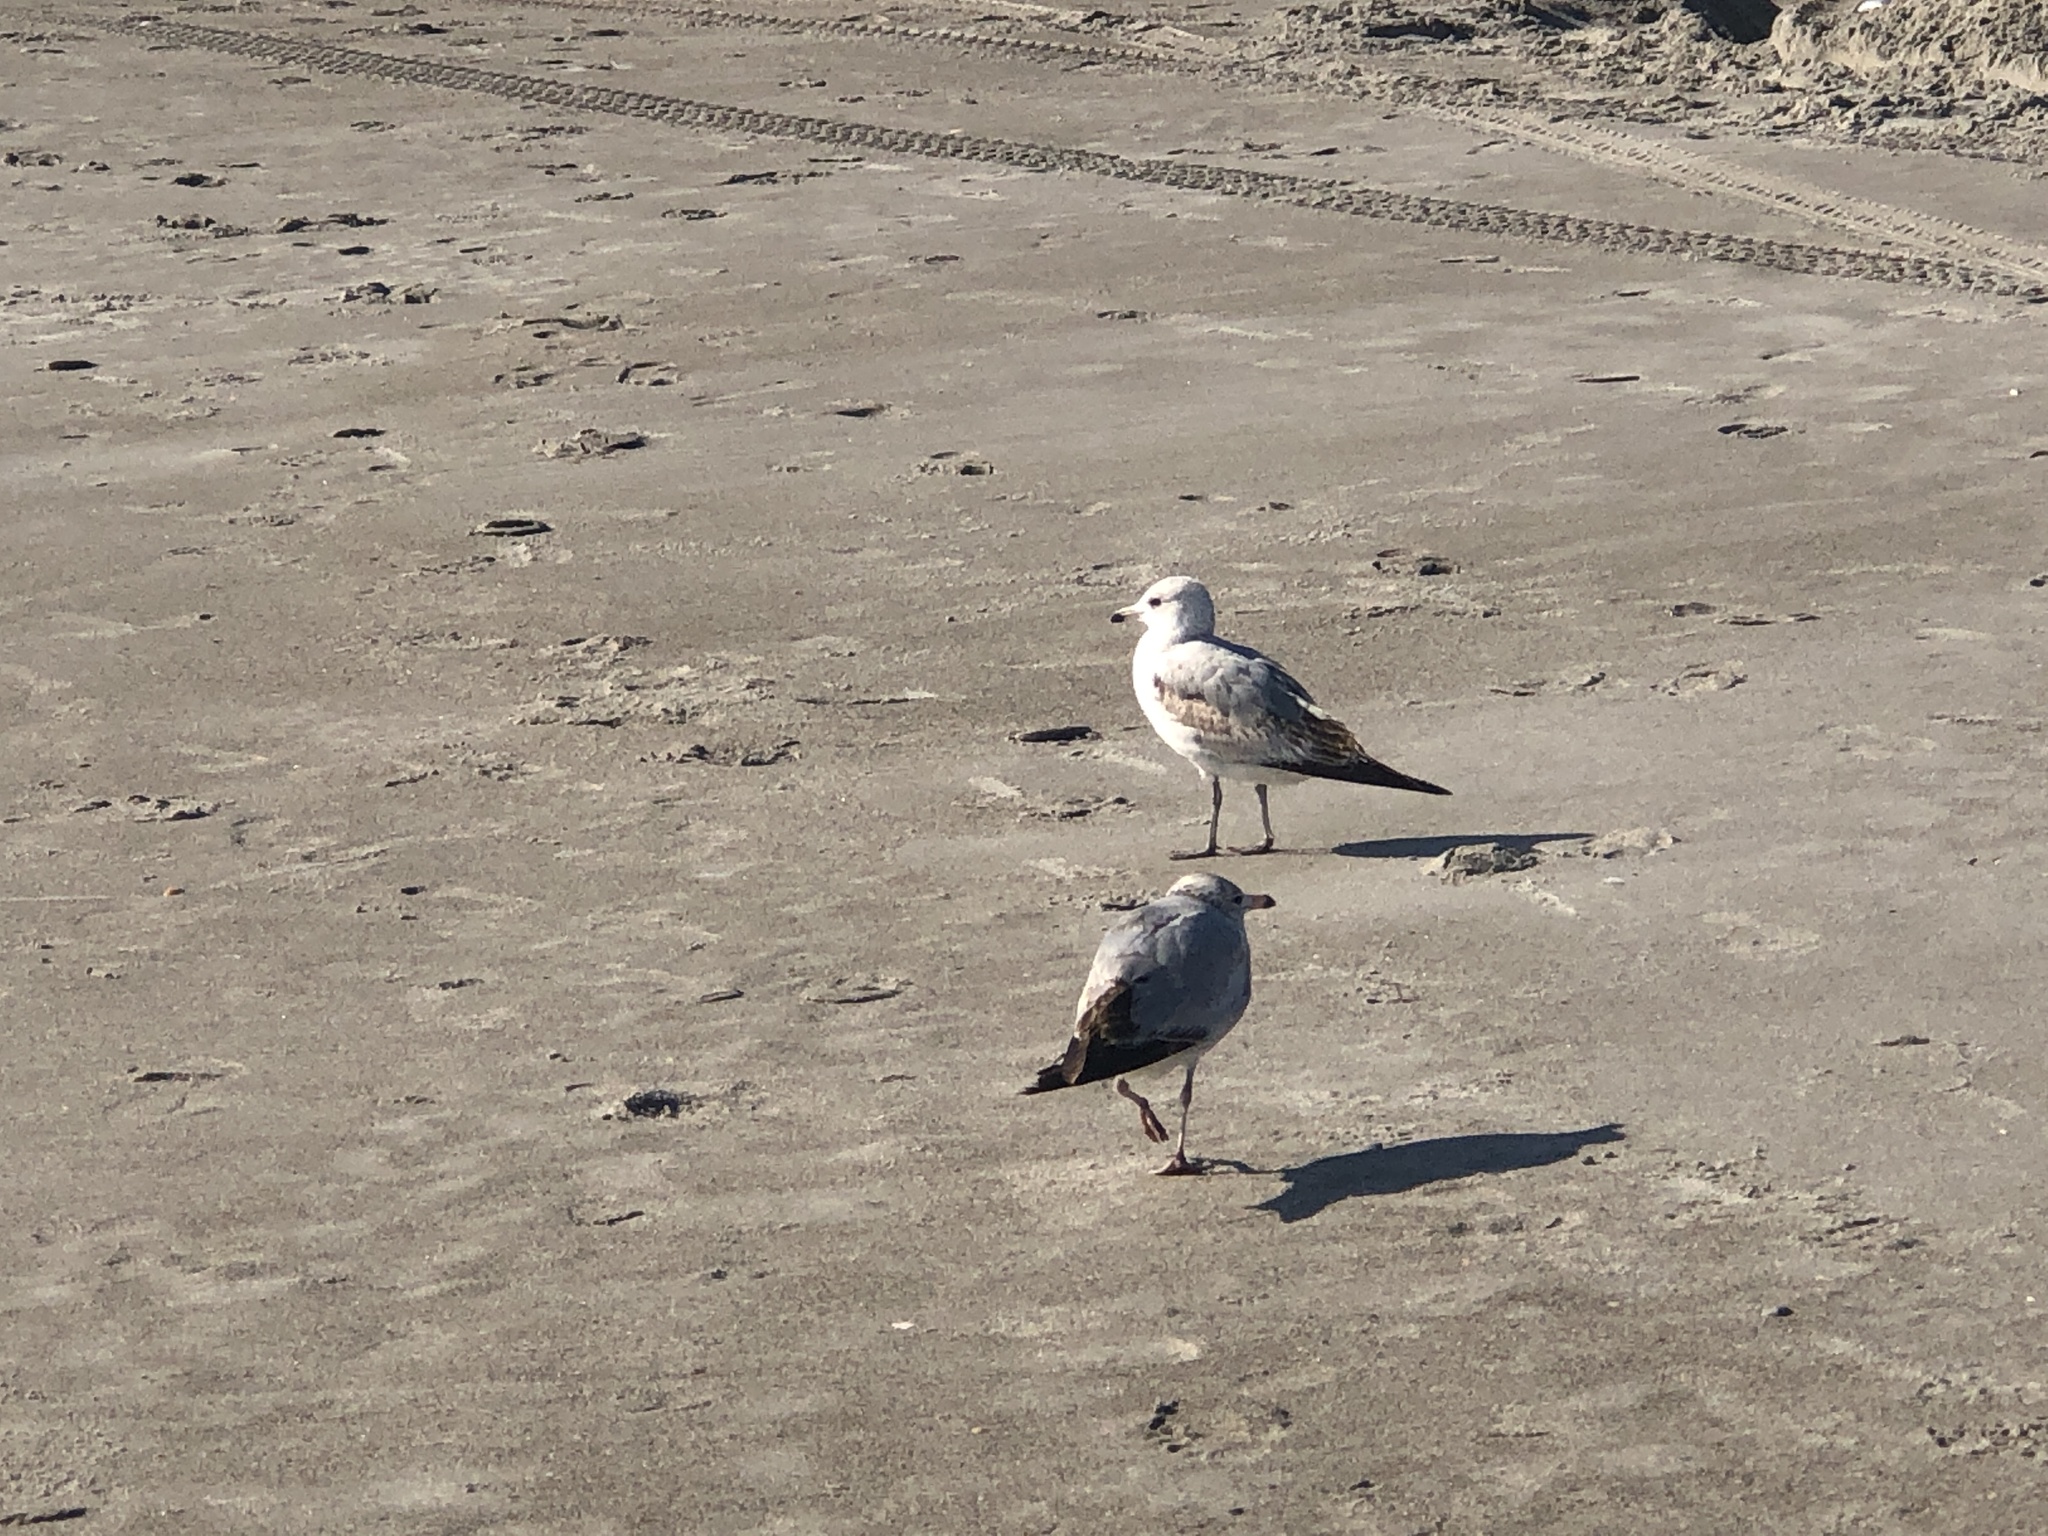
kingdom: Animalia
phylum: Chordata
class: Aves
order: Charadriiformes
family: Laridae
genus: Larus
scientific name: Larus delawarensis
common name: Ring-billed gull
